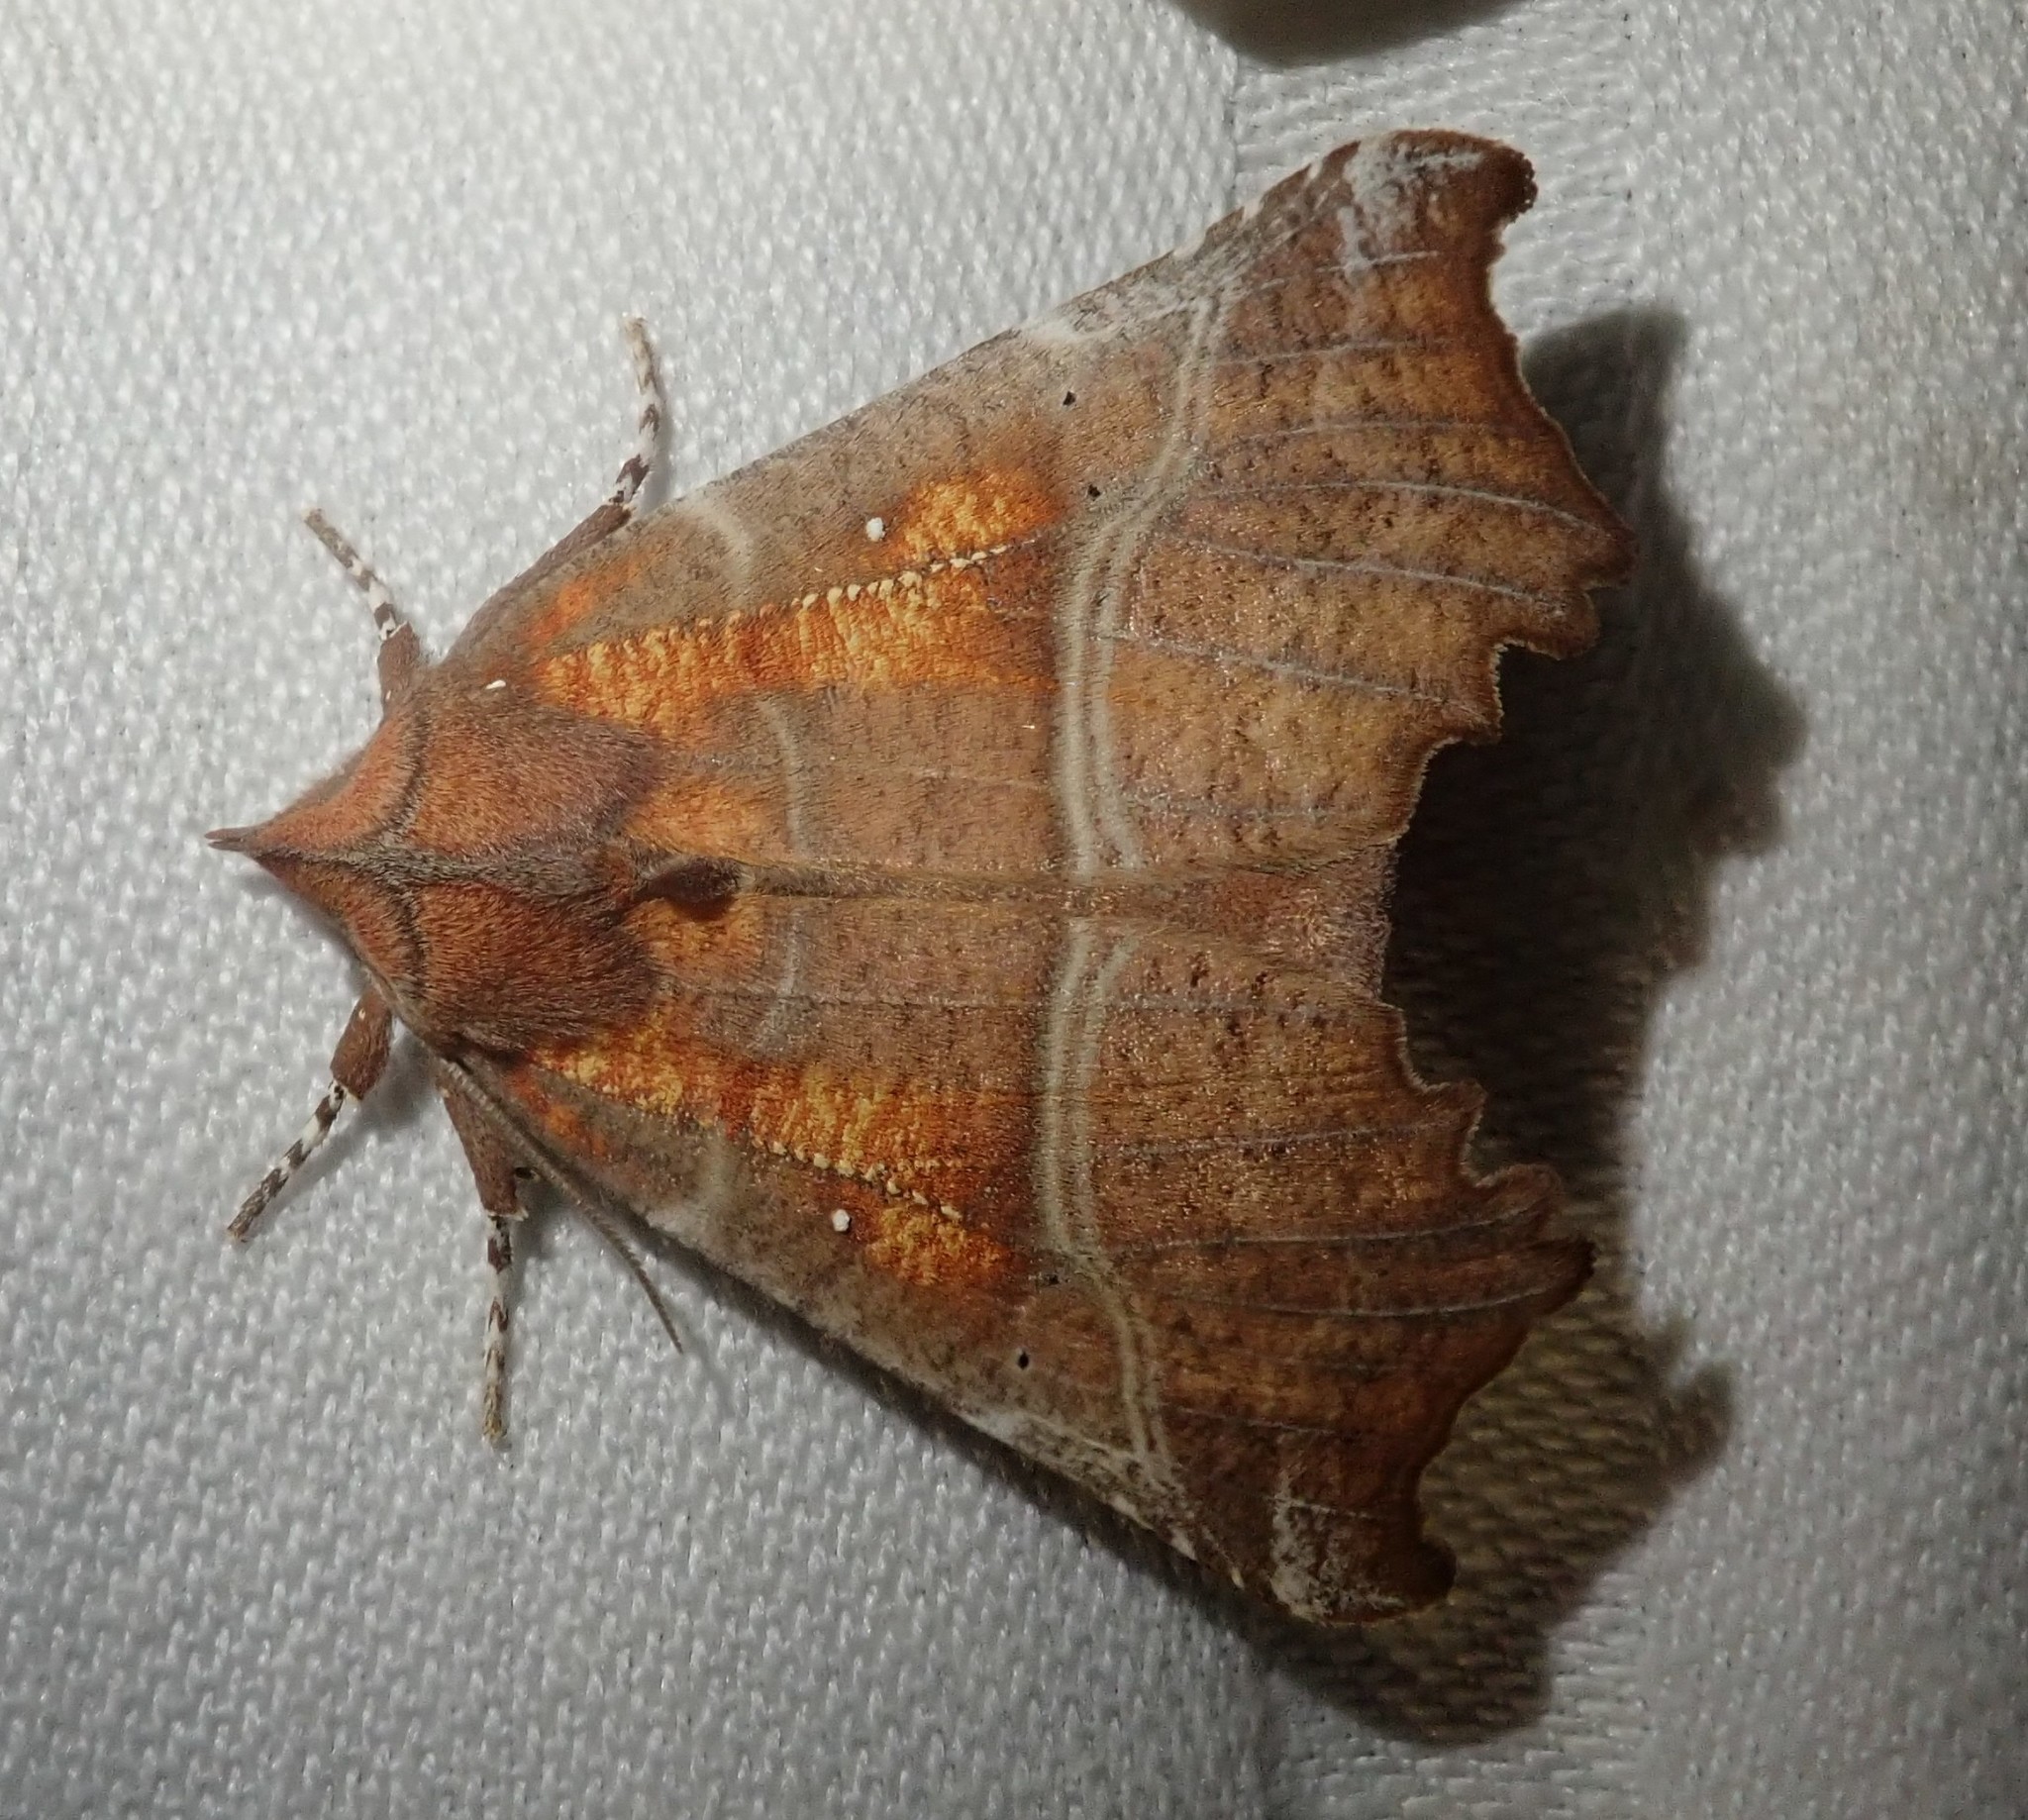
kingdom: Animalia
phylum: Arthropoda
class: Insecta
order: Lepidoptera
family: Erebidae
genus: Scoliopteryx
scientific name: Scoliopteryx libatrix
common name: Herald
